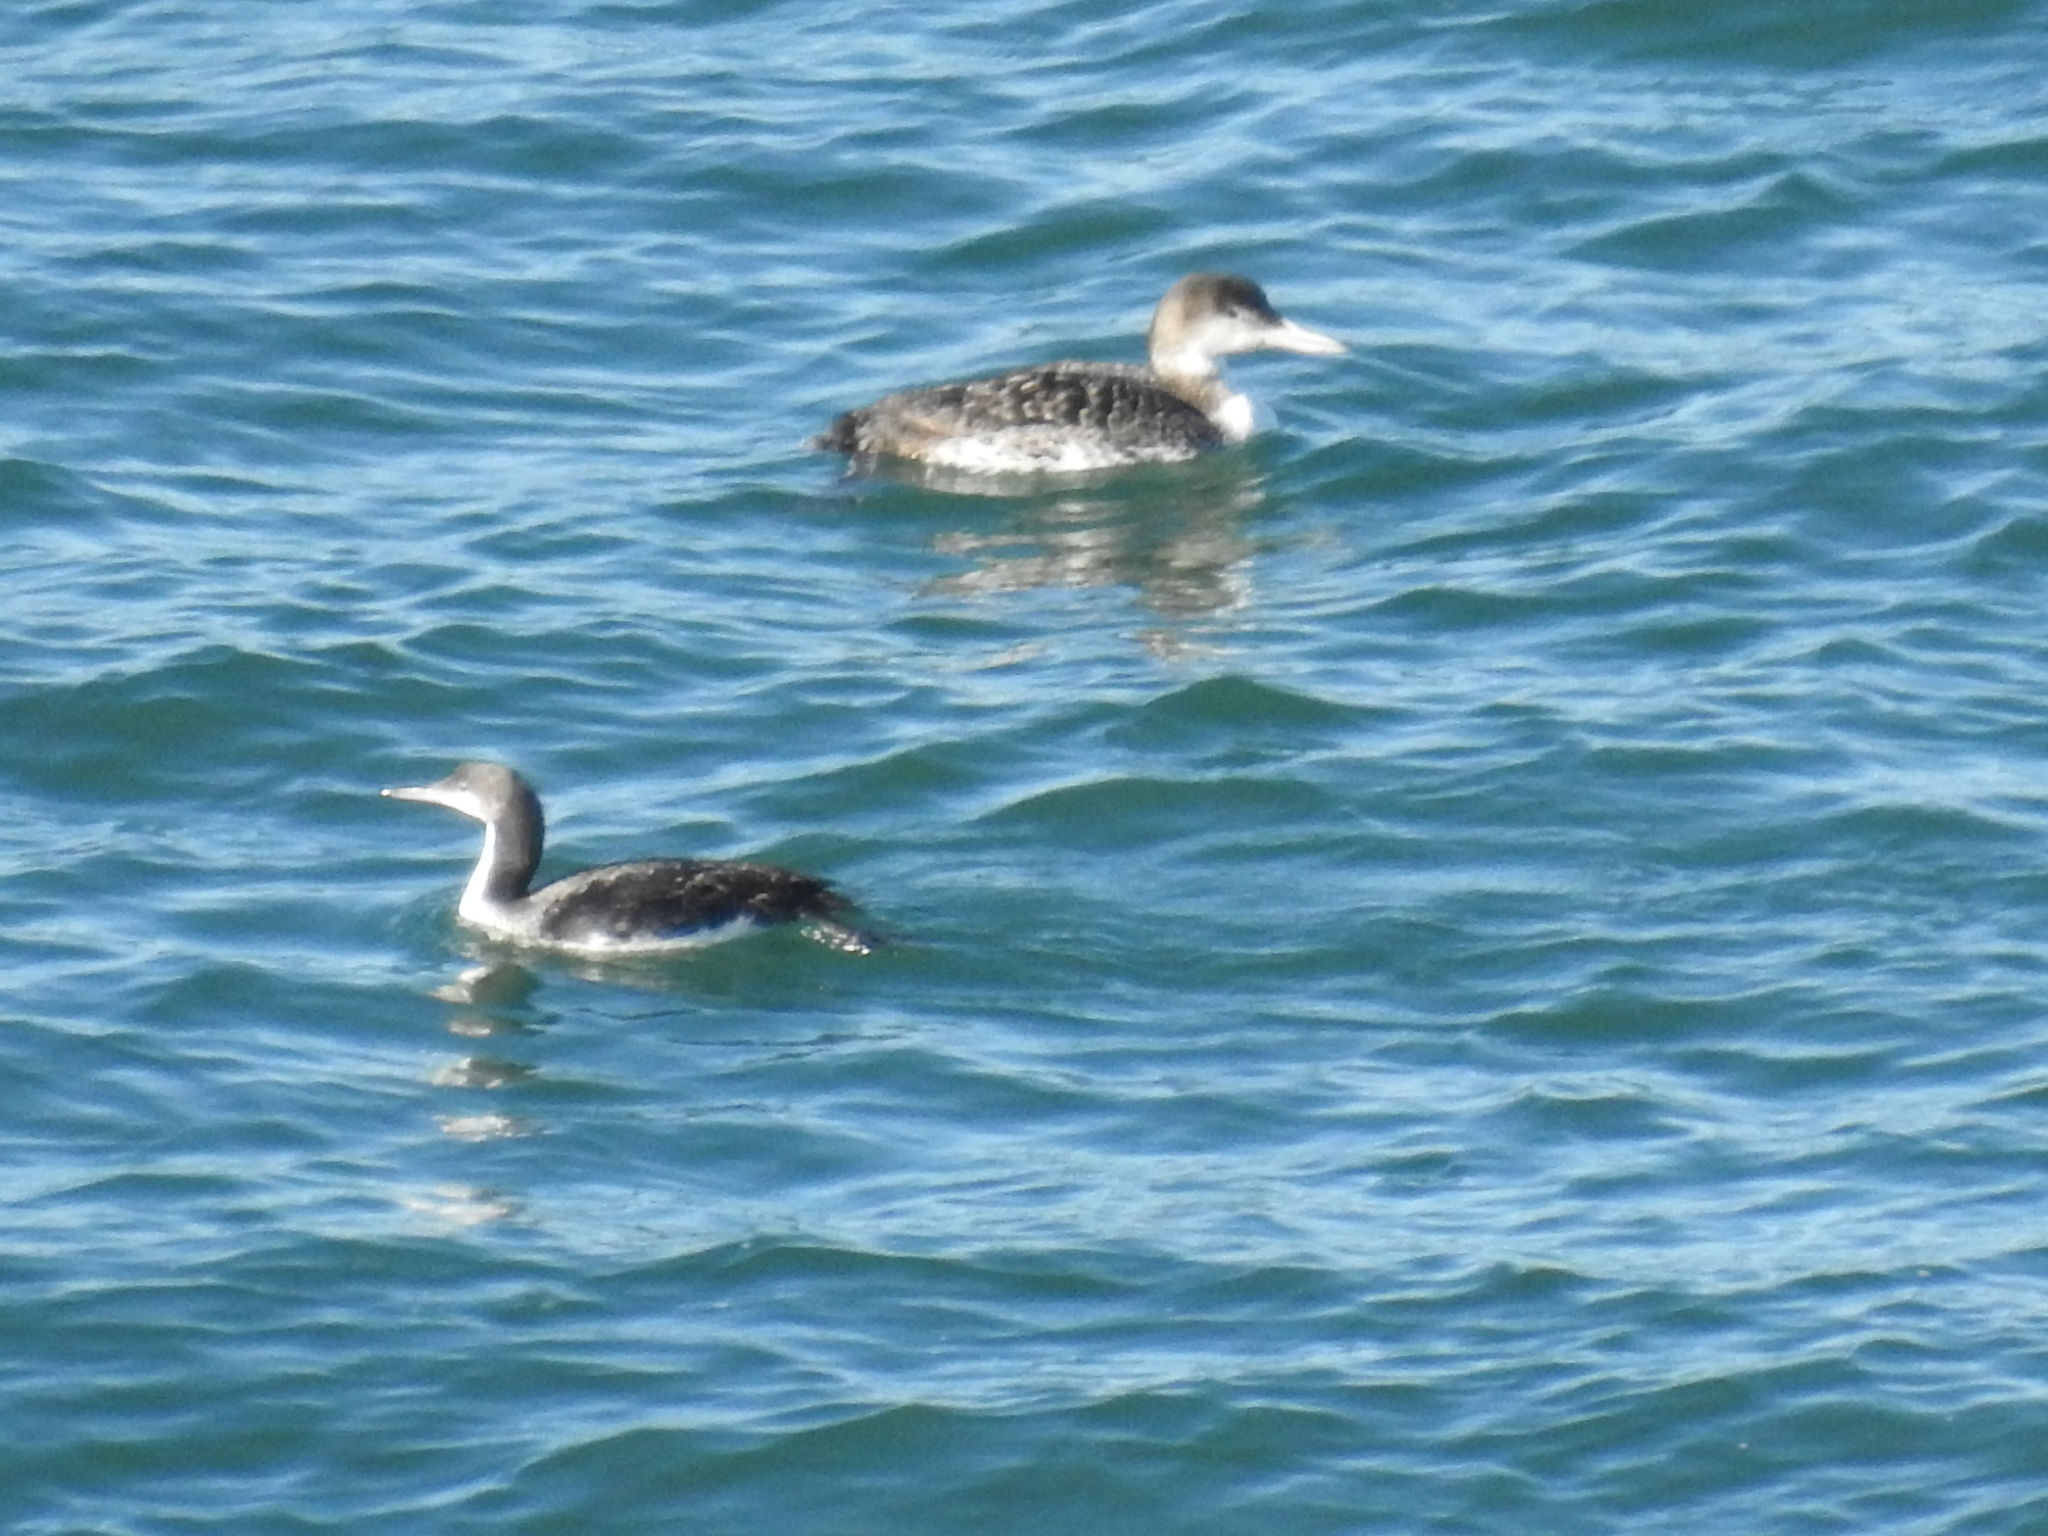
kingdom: Animalia
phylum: Chordata
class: Aves
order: Gaviiformes
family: Gaviidae
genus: Gavia
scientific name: Gavia pacifica
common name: Pacific loon
